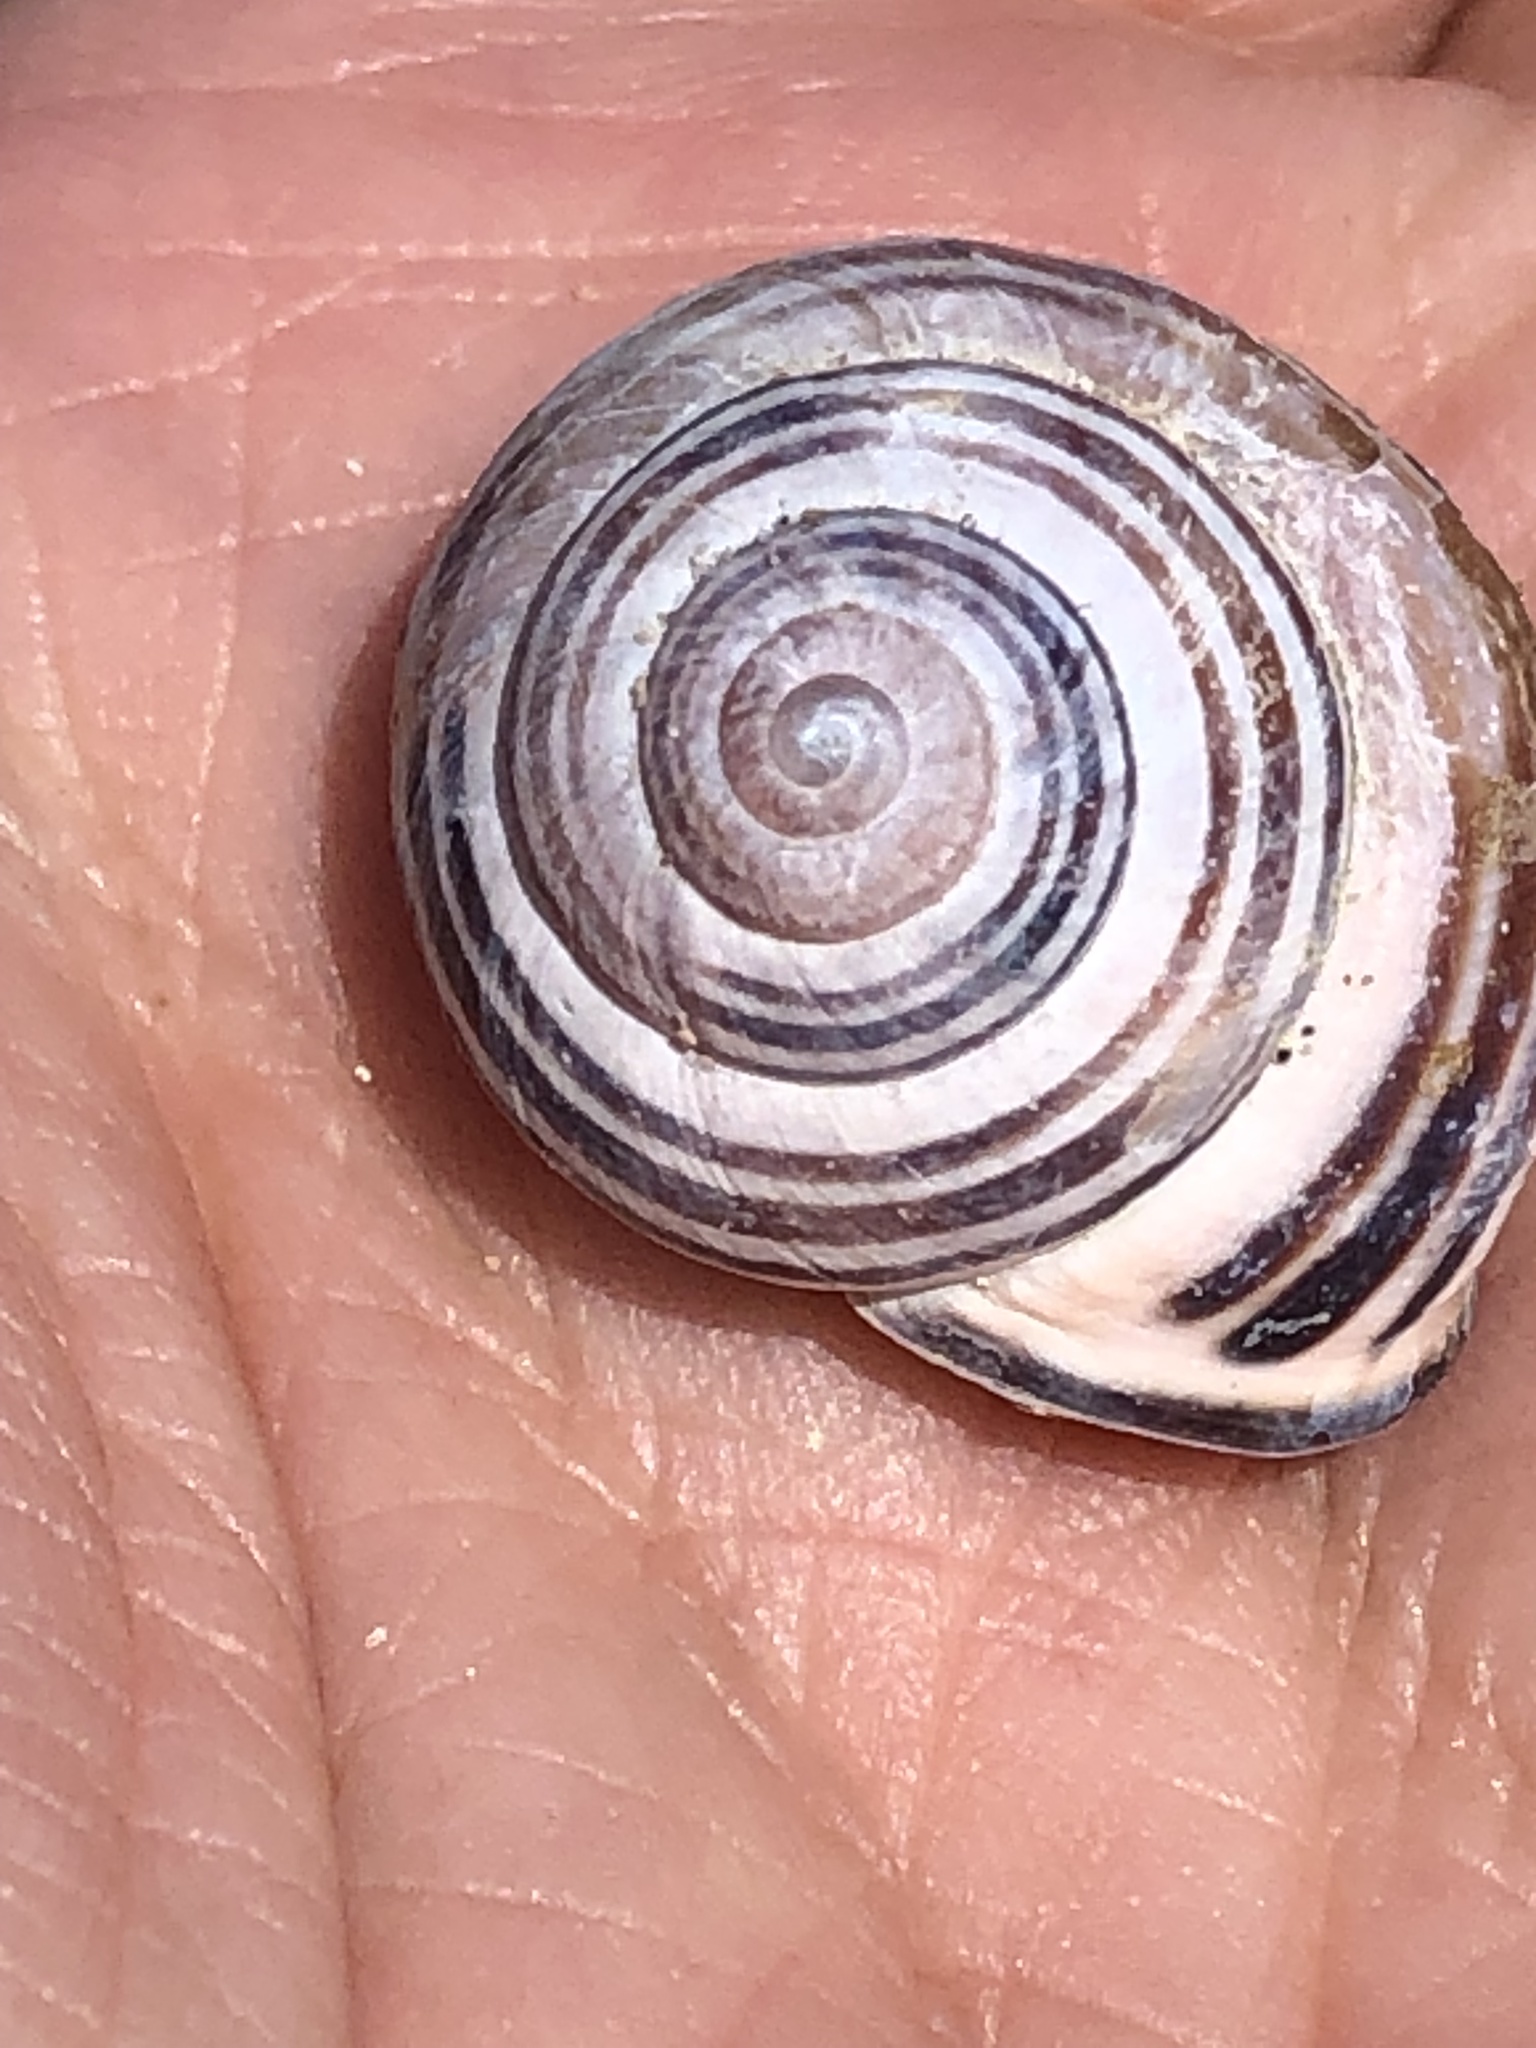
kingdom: Animalia
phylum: Mollusca
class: Gastropoda
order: Stylommatophora
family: Helicidae
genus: Cepaea
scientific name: Cepaea nemoralis
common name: Grovesnail
